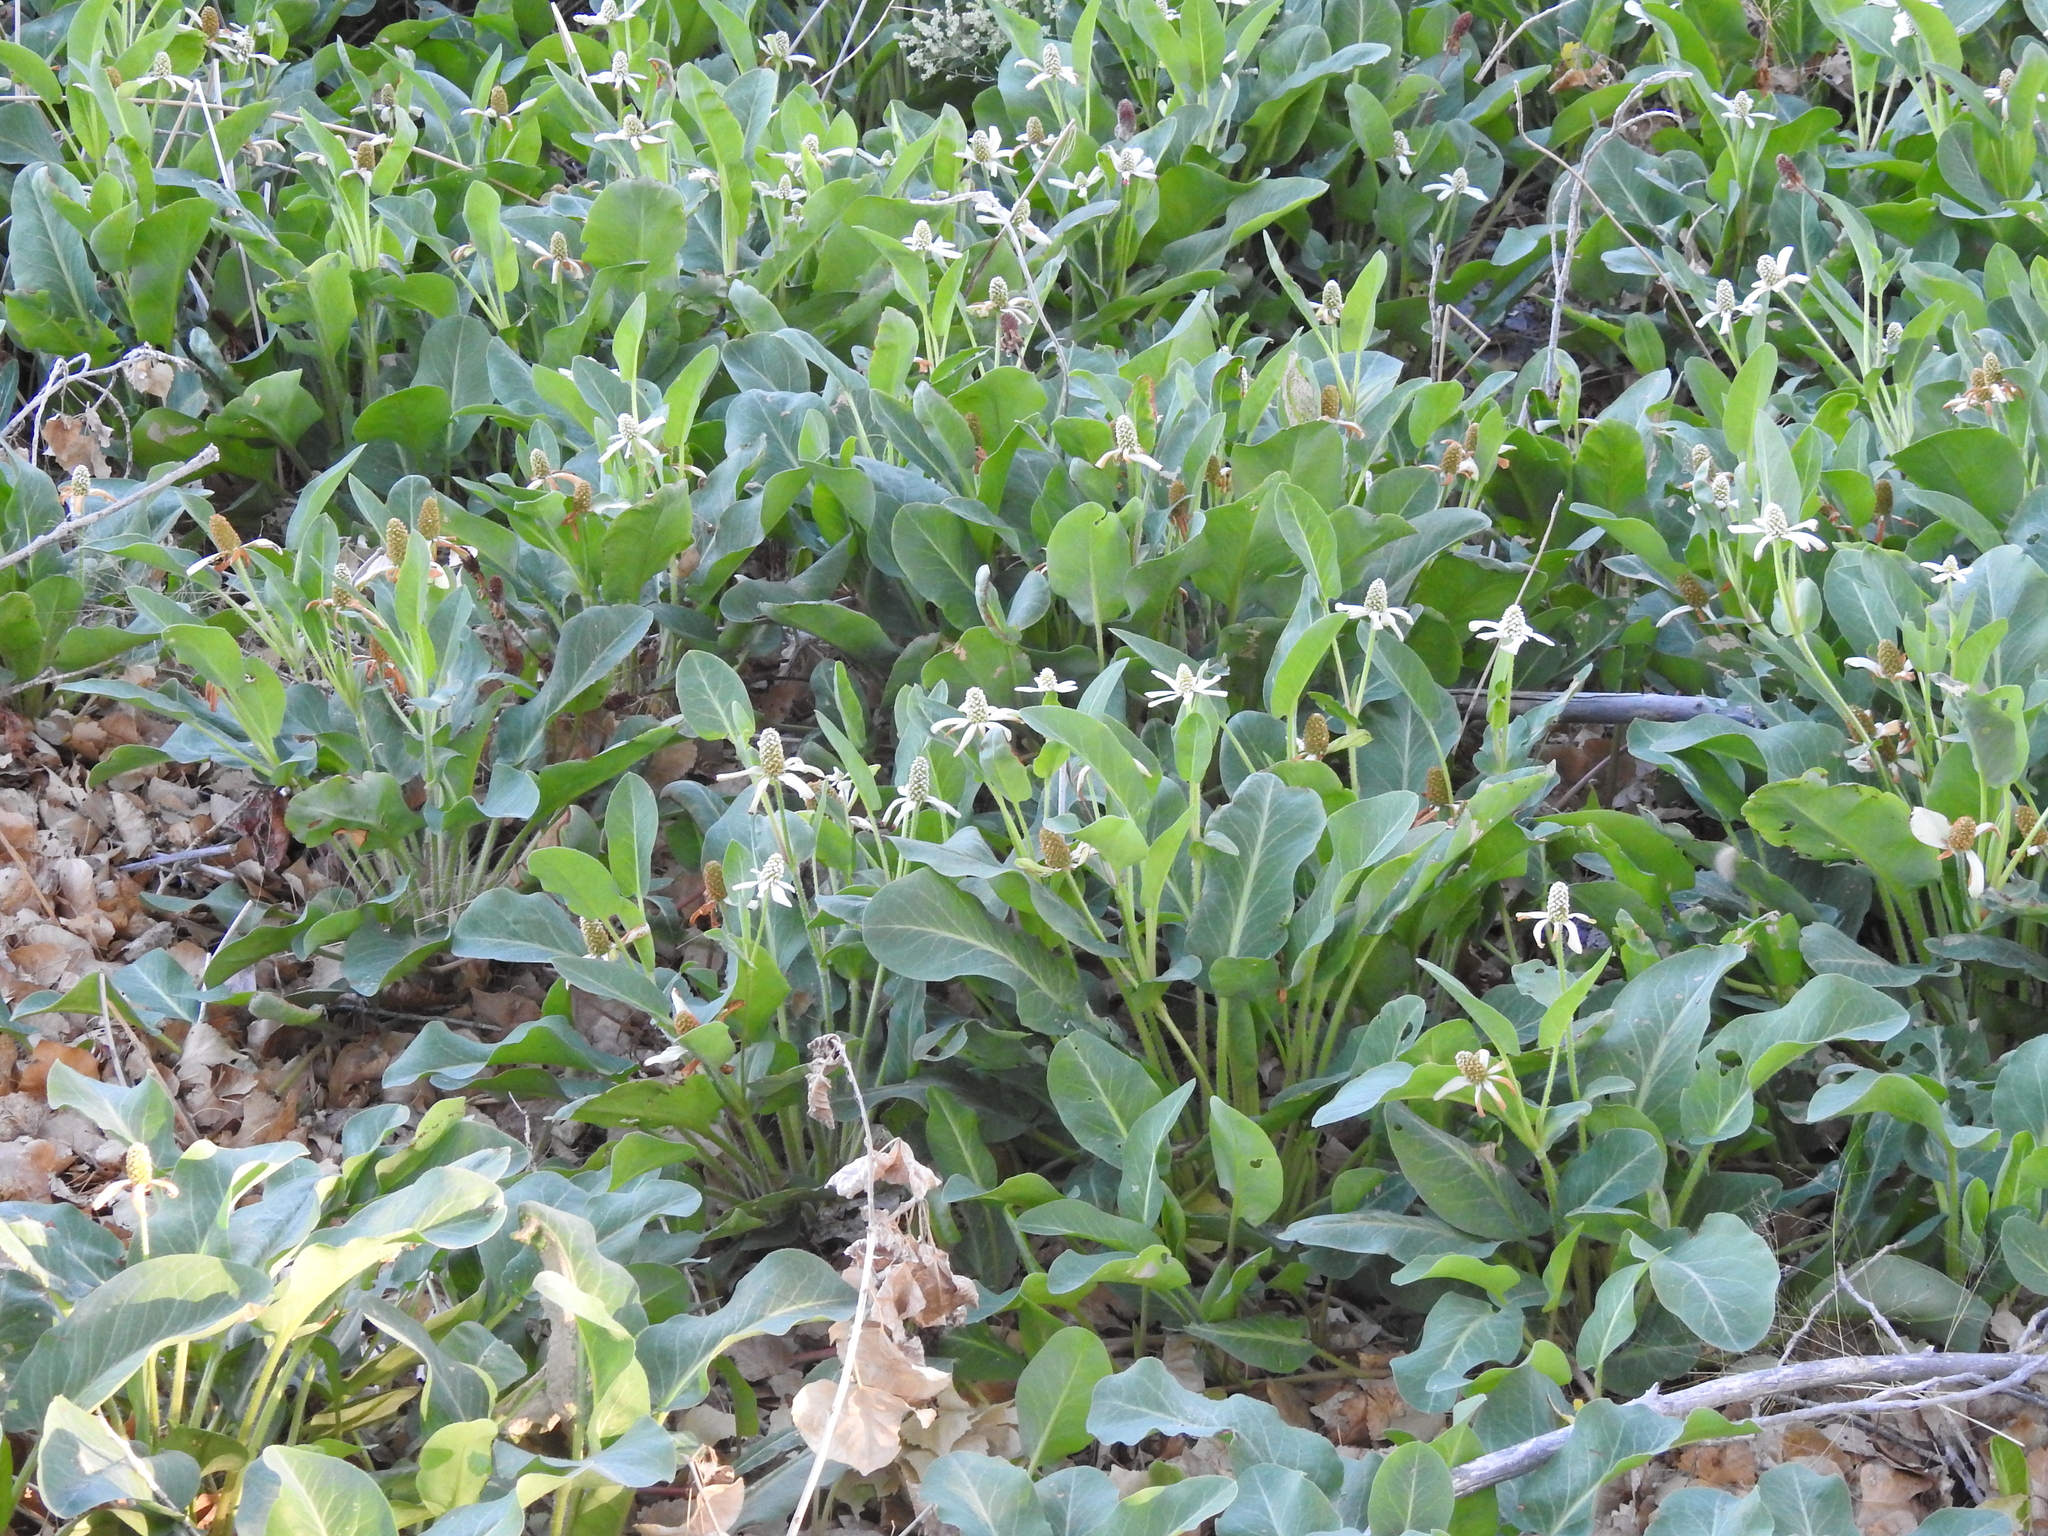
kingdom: Plantae
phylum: Tracheophyta
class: Magnoliopsida
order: Piperales
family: Saururaceae
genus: Anemopsis
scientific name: Anemopsis californica
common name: Apache-beads
